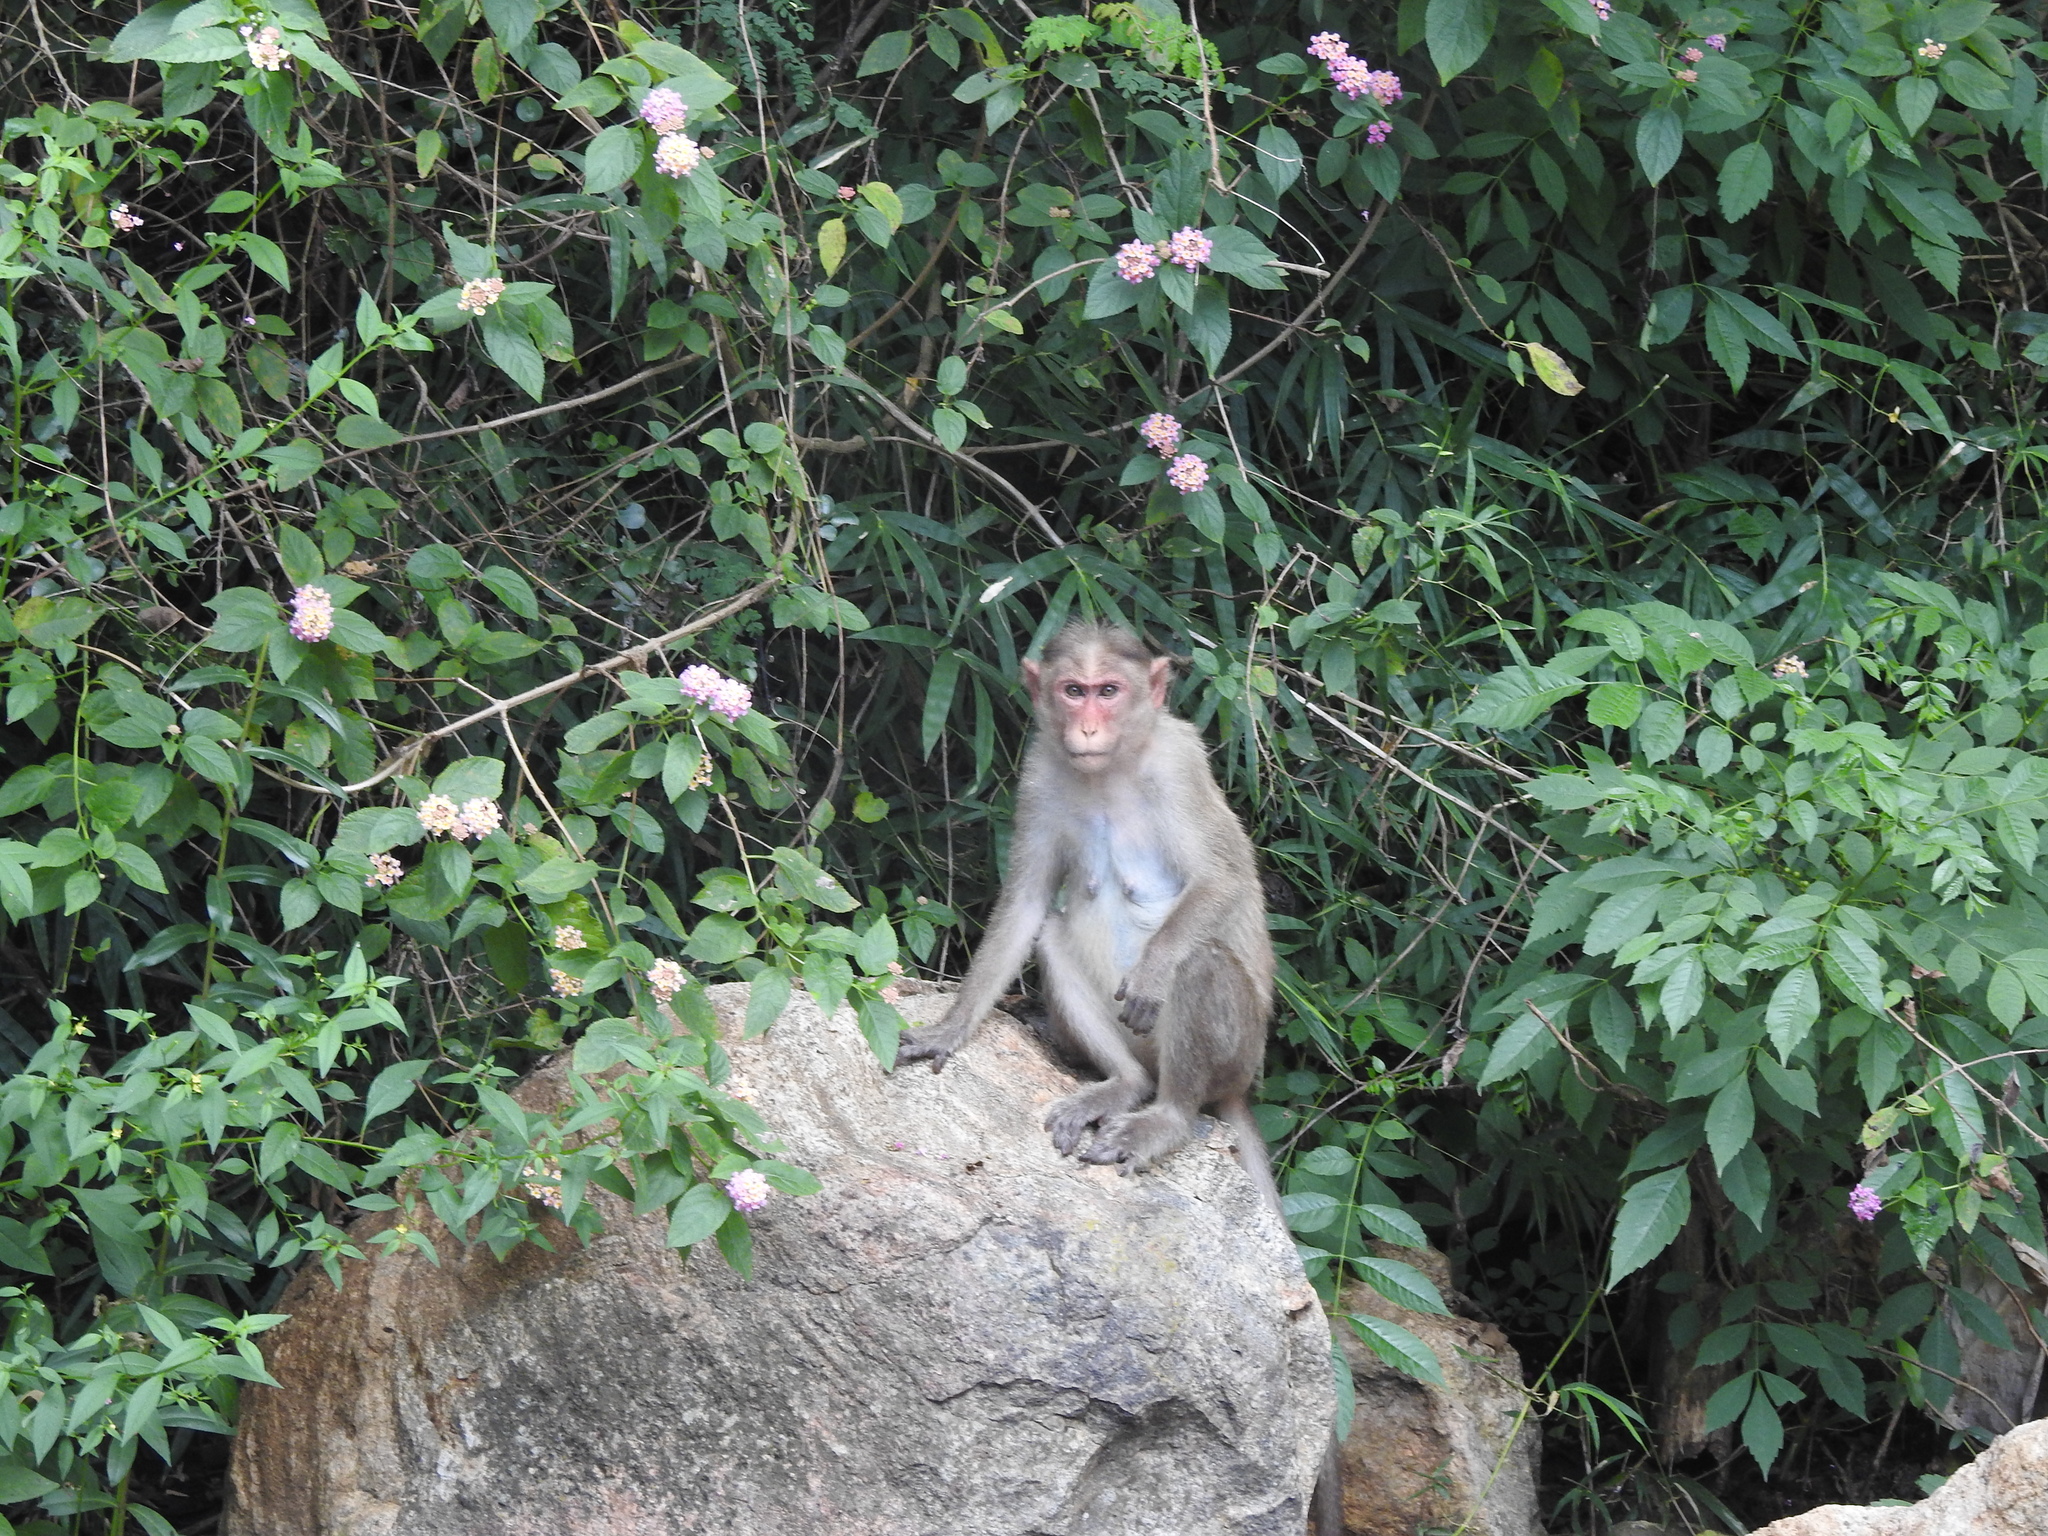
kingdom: Animalia
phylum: Chordata
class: Mammalia
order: Primates
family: Cercopithecidae
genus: Macaca
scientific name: Macaca radiata
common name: Bonnet macaque
